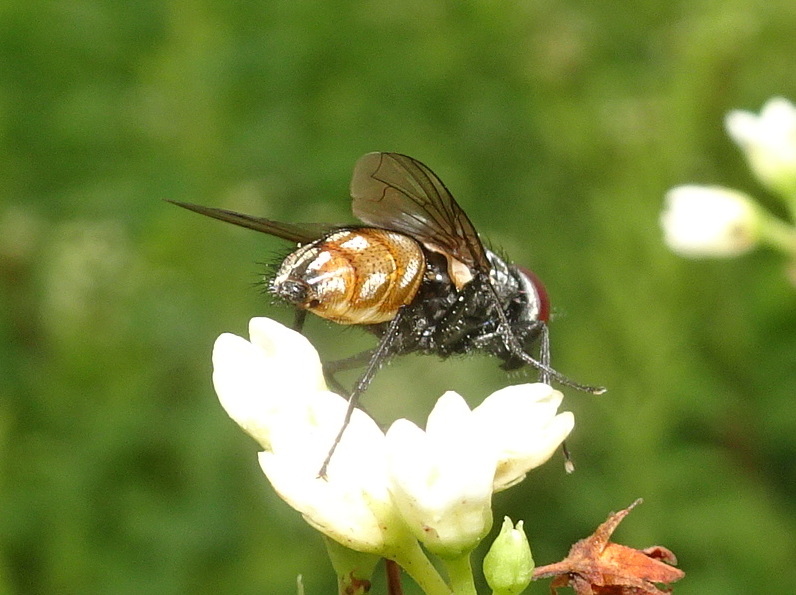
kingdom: Animalia
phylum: Arthropoda
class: Insecta
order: Diptera
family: Muscidae
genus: Musca
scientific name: Musca autumnalis
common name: Face fly
